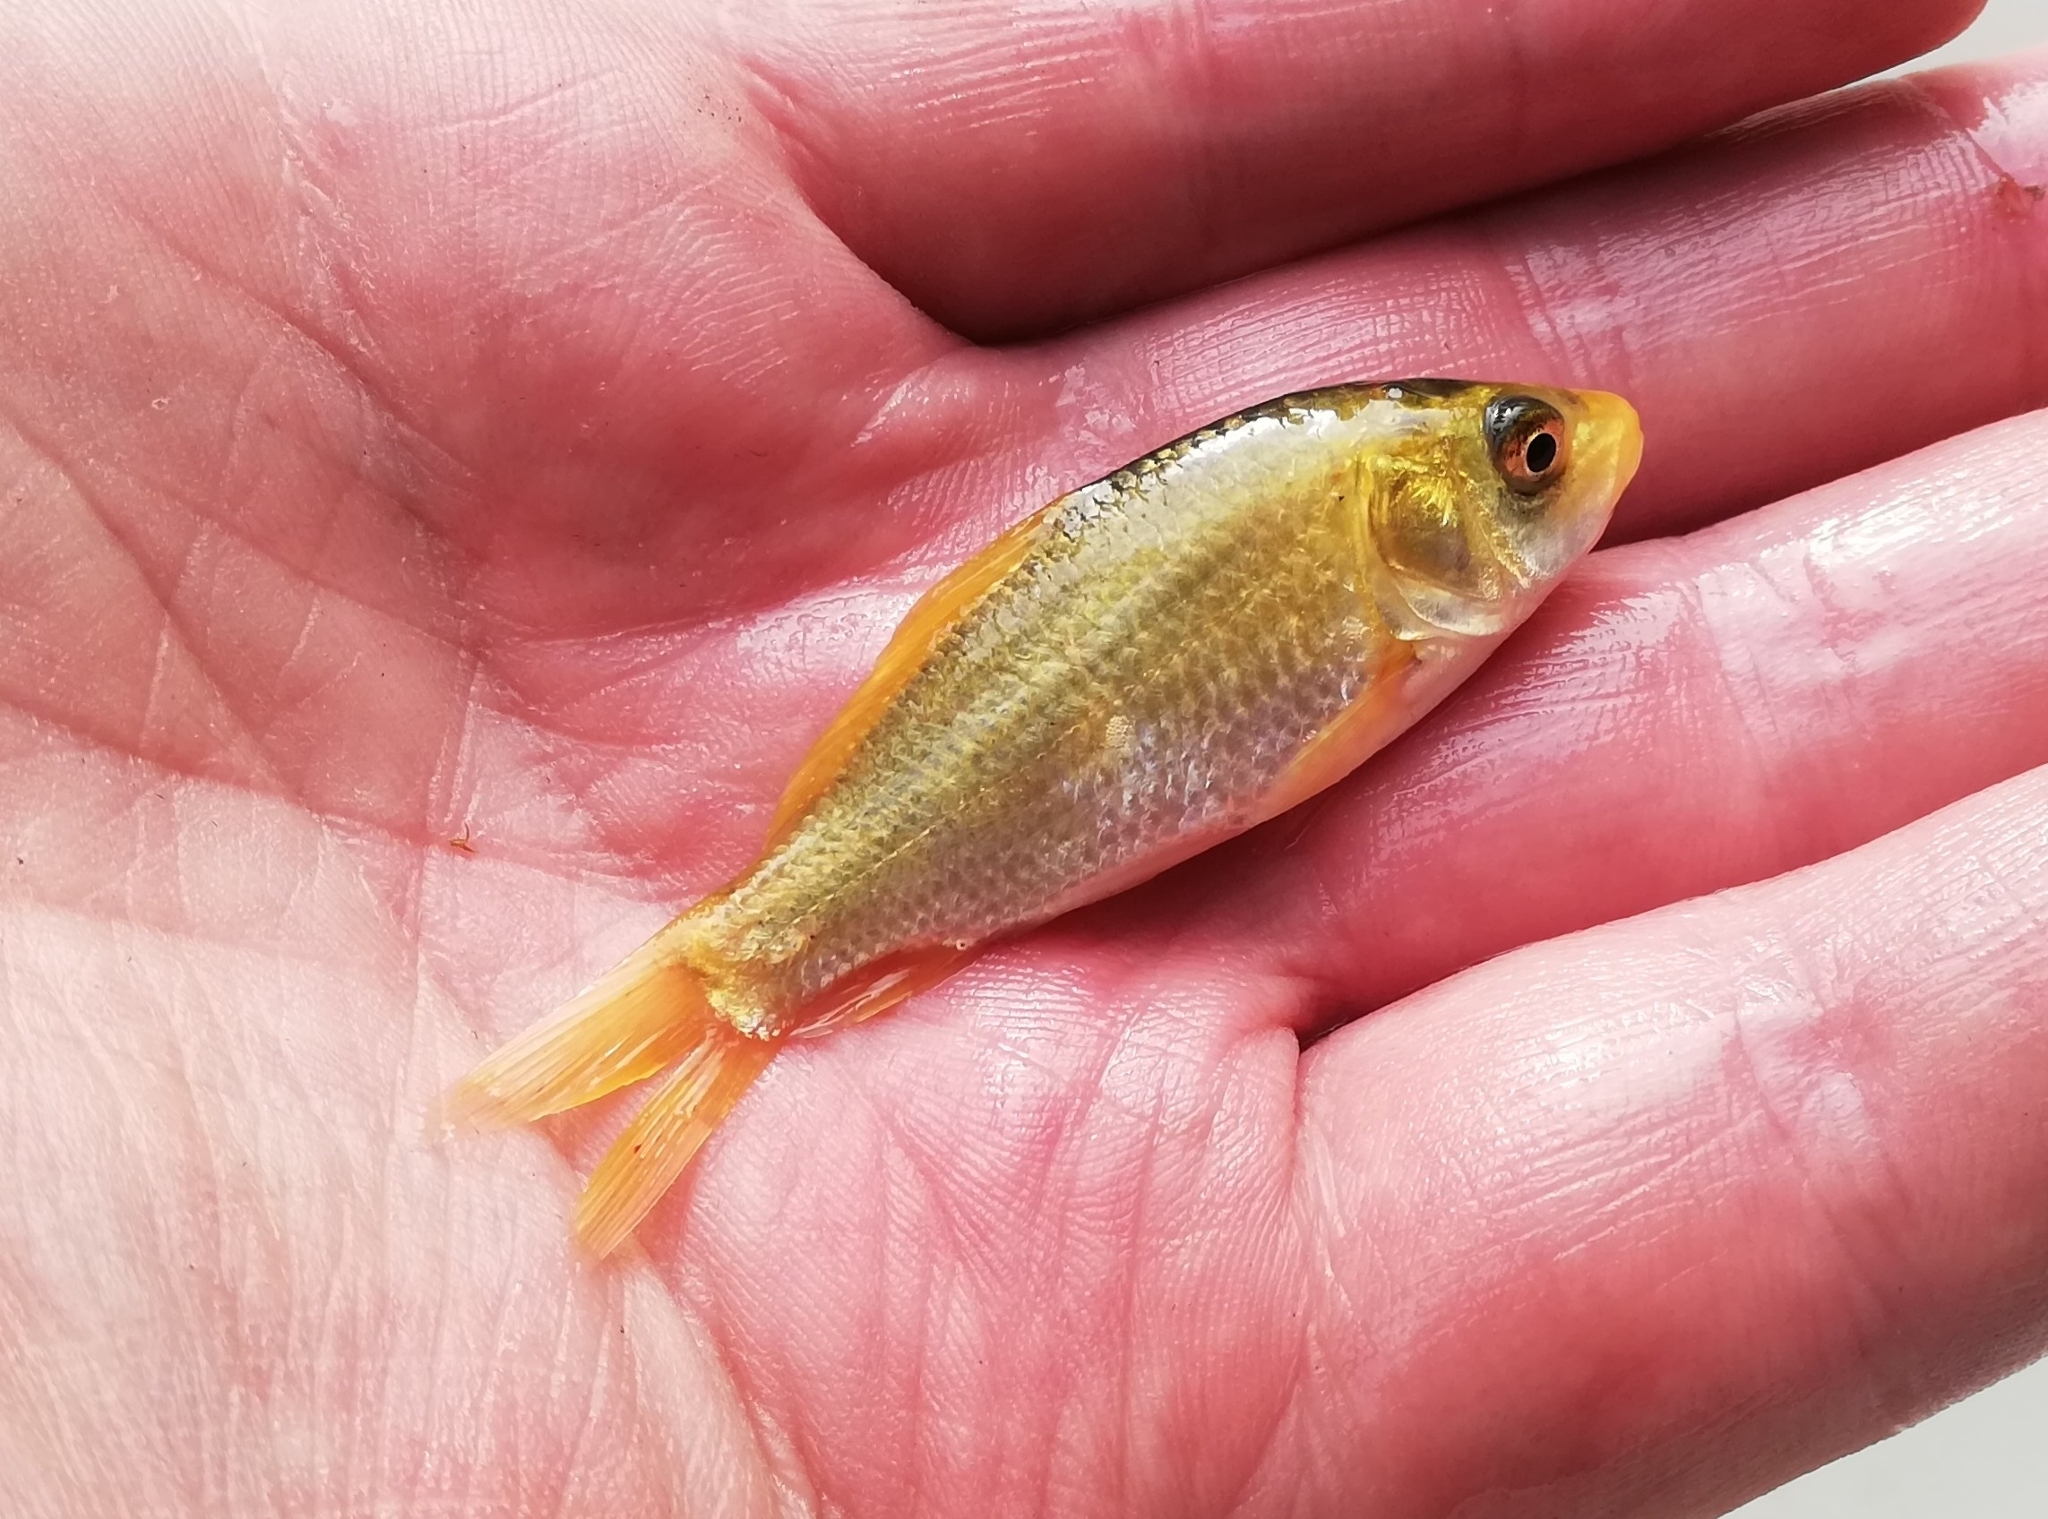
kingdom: Animalia
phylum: Chordata
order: Cypriniformes
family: Cyprinidae
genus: Cyprinus
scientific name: Cyprinus rubrofuscus
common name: Koi
